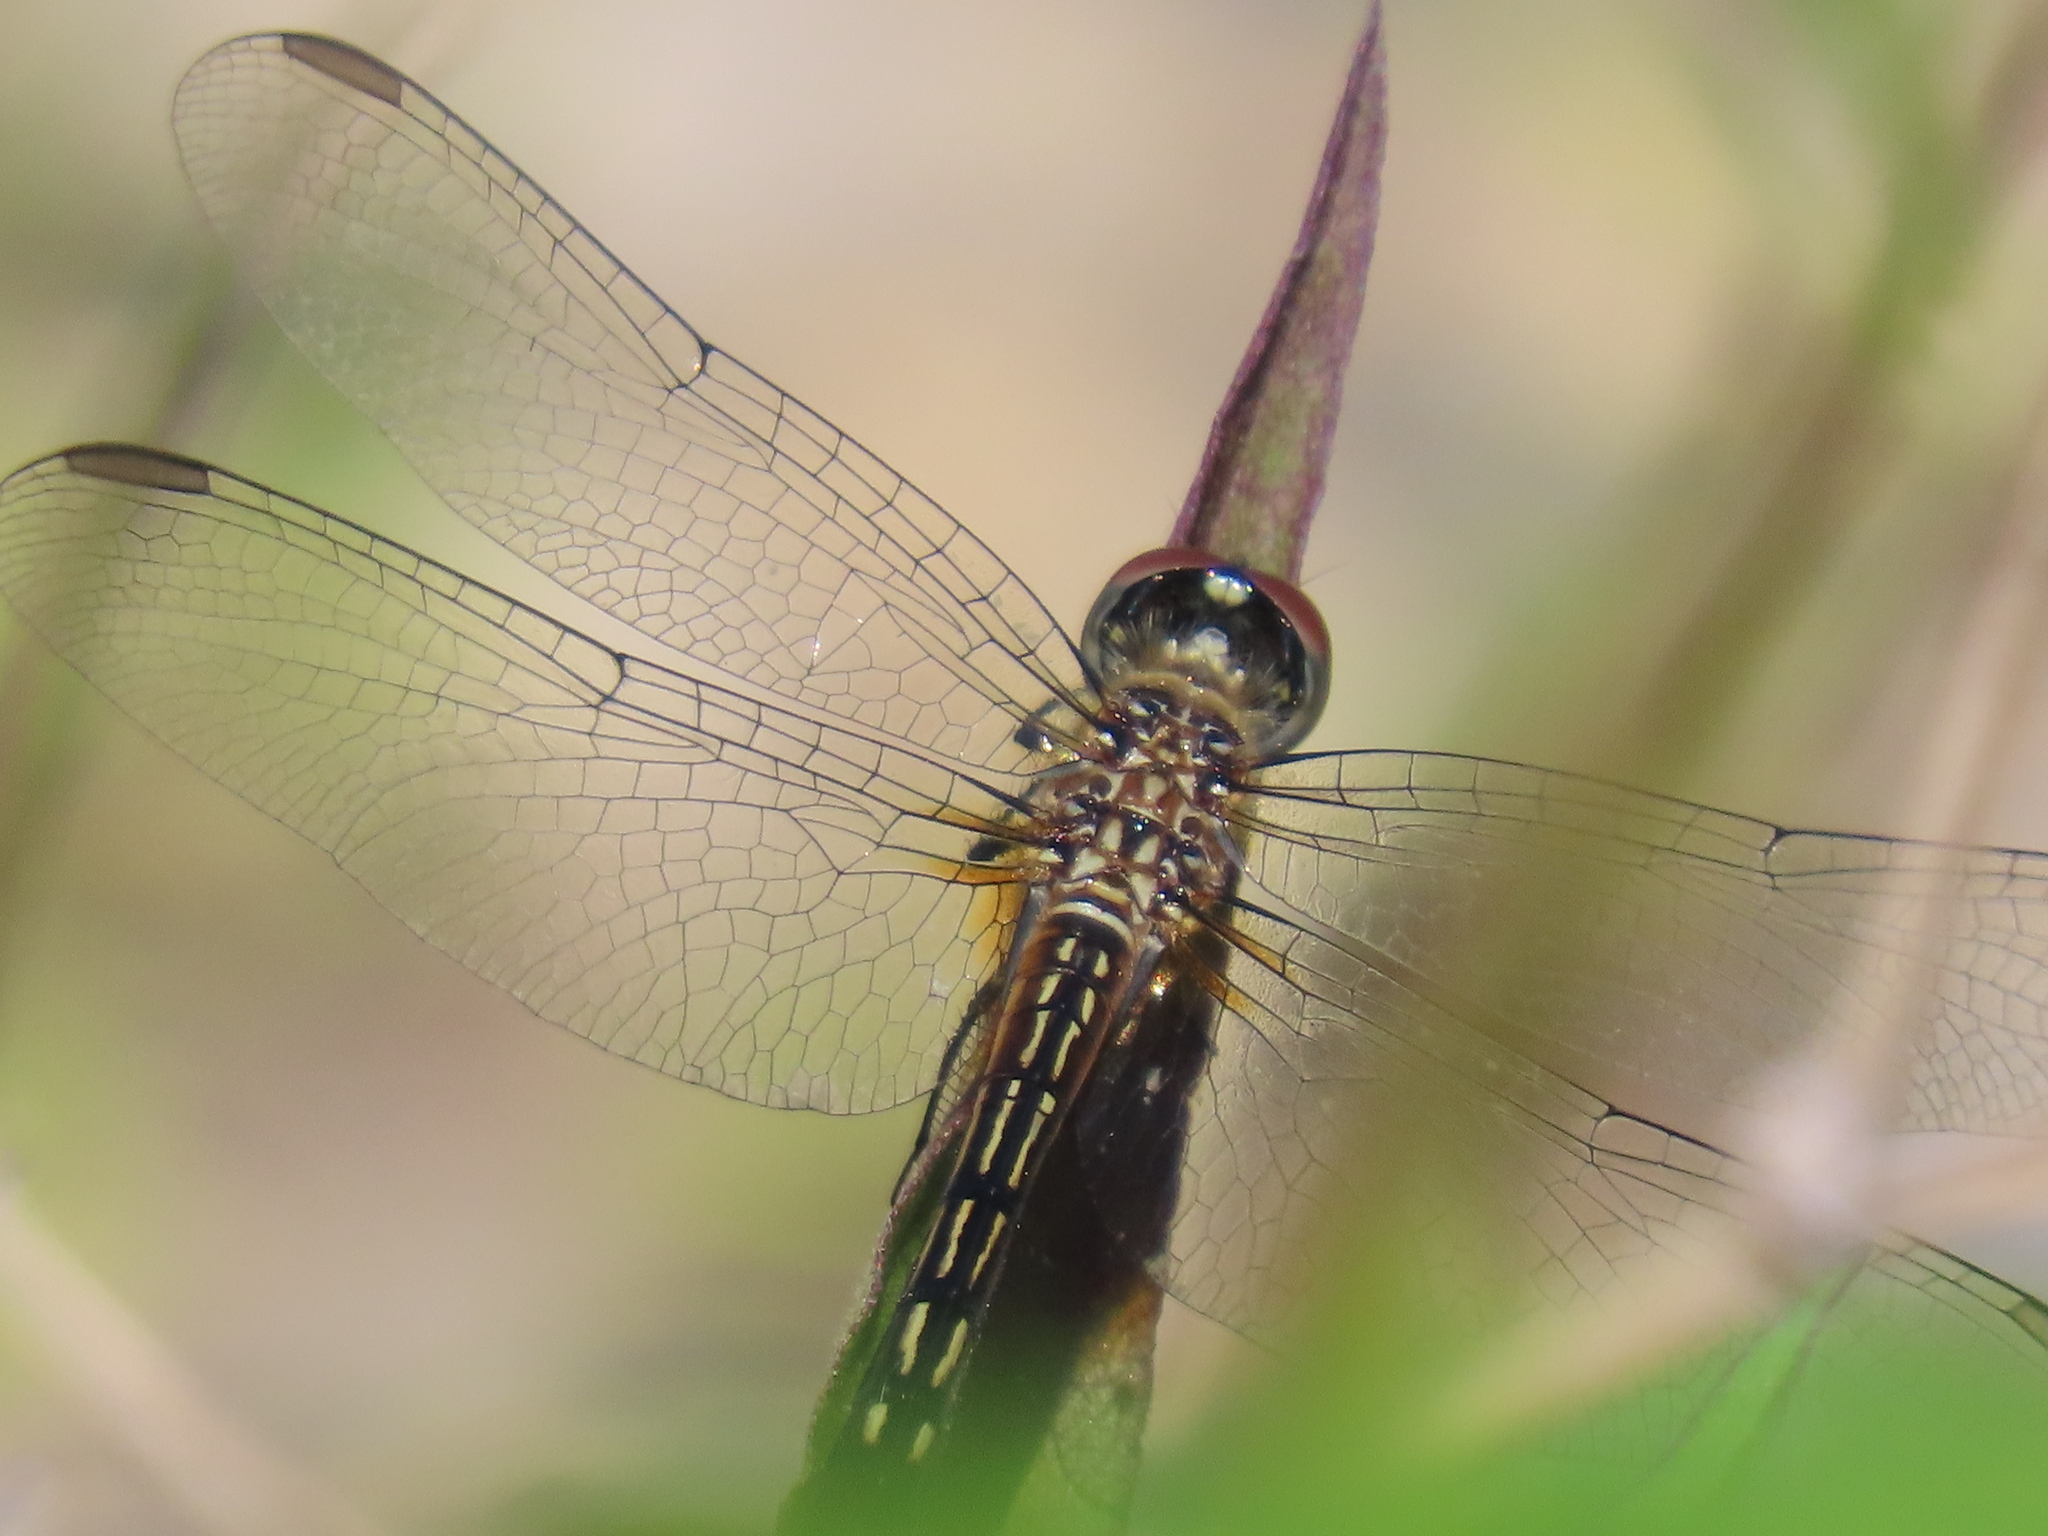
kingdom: Animalia
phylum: Arthropoda
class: Insecta
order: Odonata
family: Libellulidae
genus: Pachydiplax
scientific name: Pachydiplax longipennis
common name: Blue dasher
